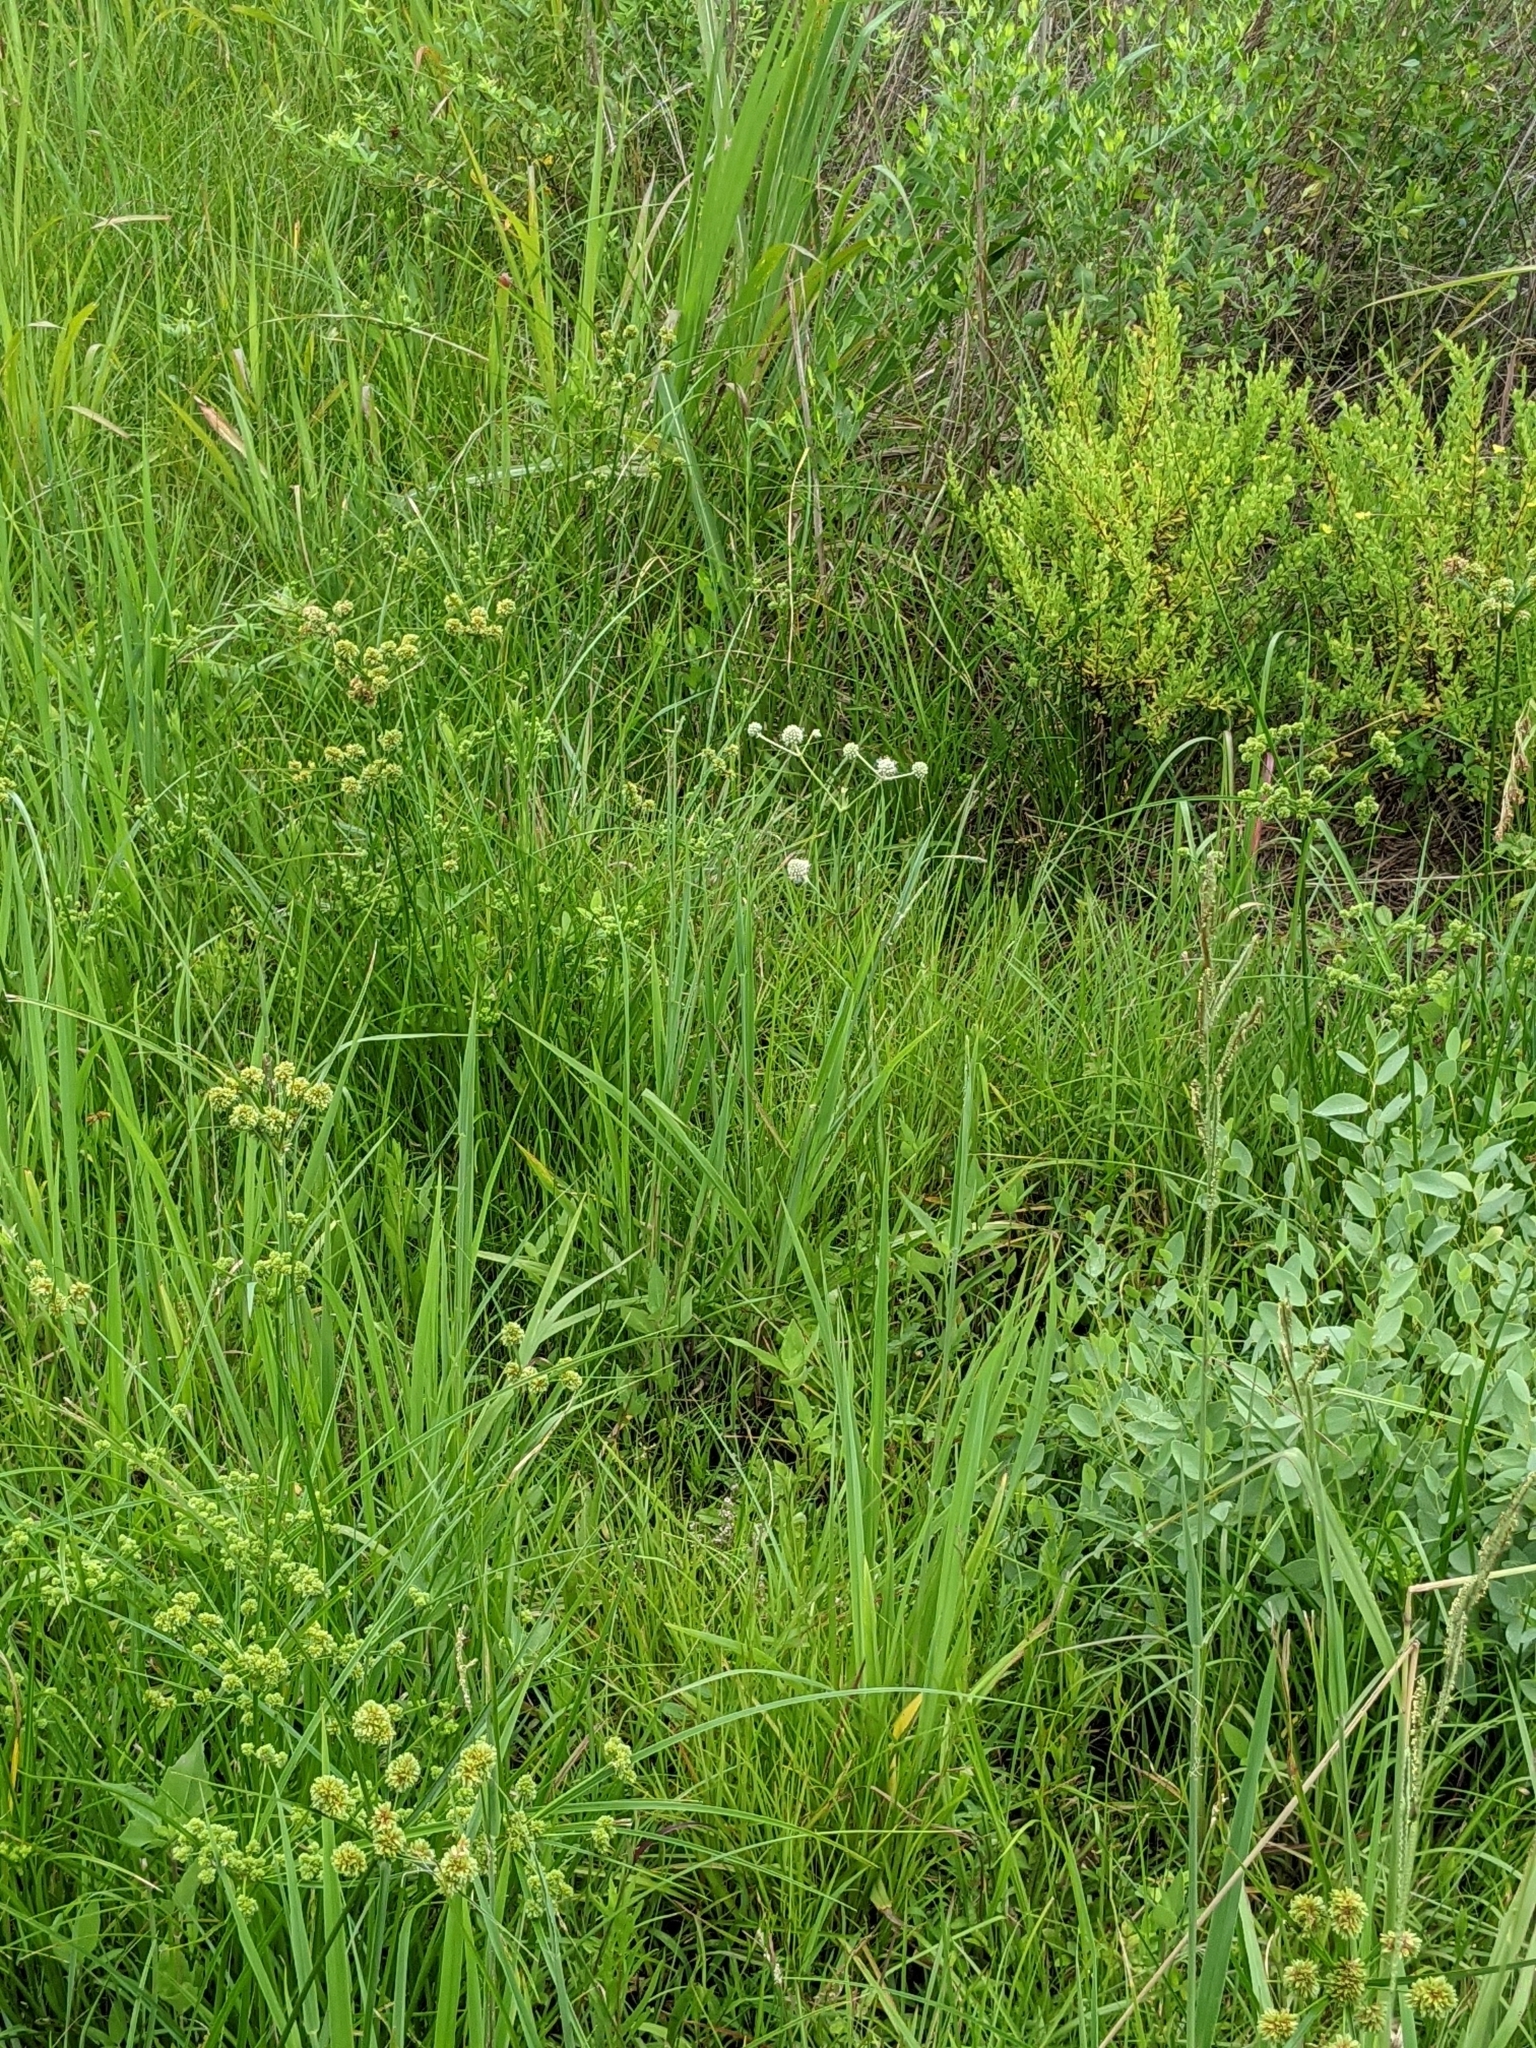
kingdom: Plantae
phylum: Tracheophyta
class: Magnoliopsida
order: Apiales
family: Apiaceae
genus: Eryngium
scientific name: Eryngium yuccifolium
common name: Button eryngo
